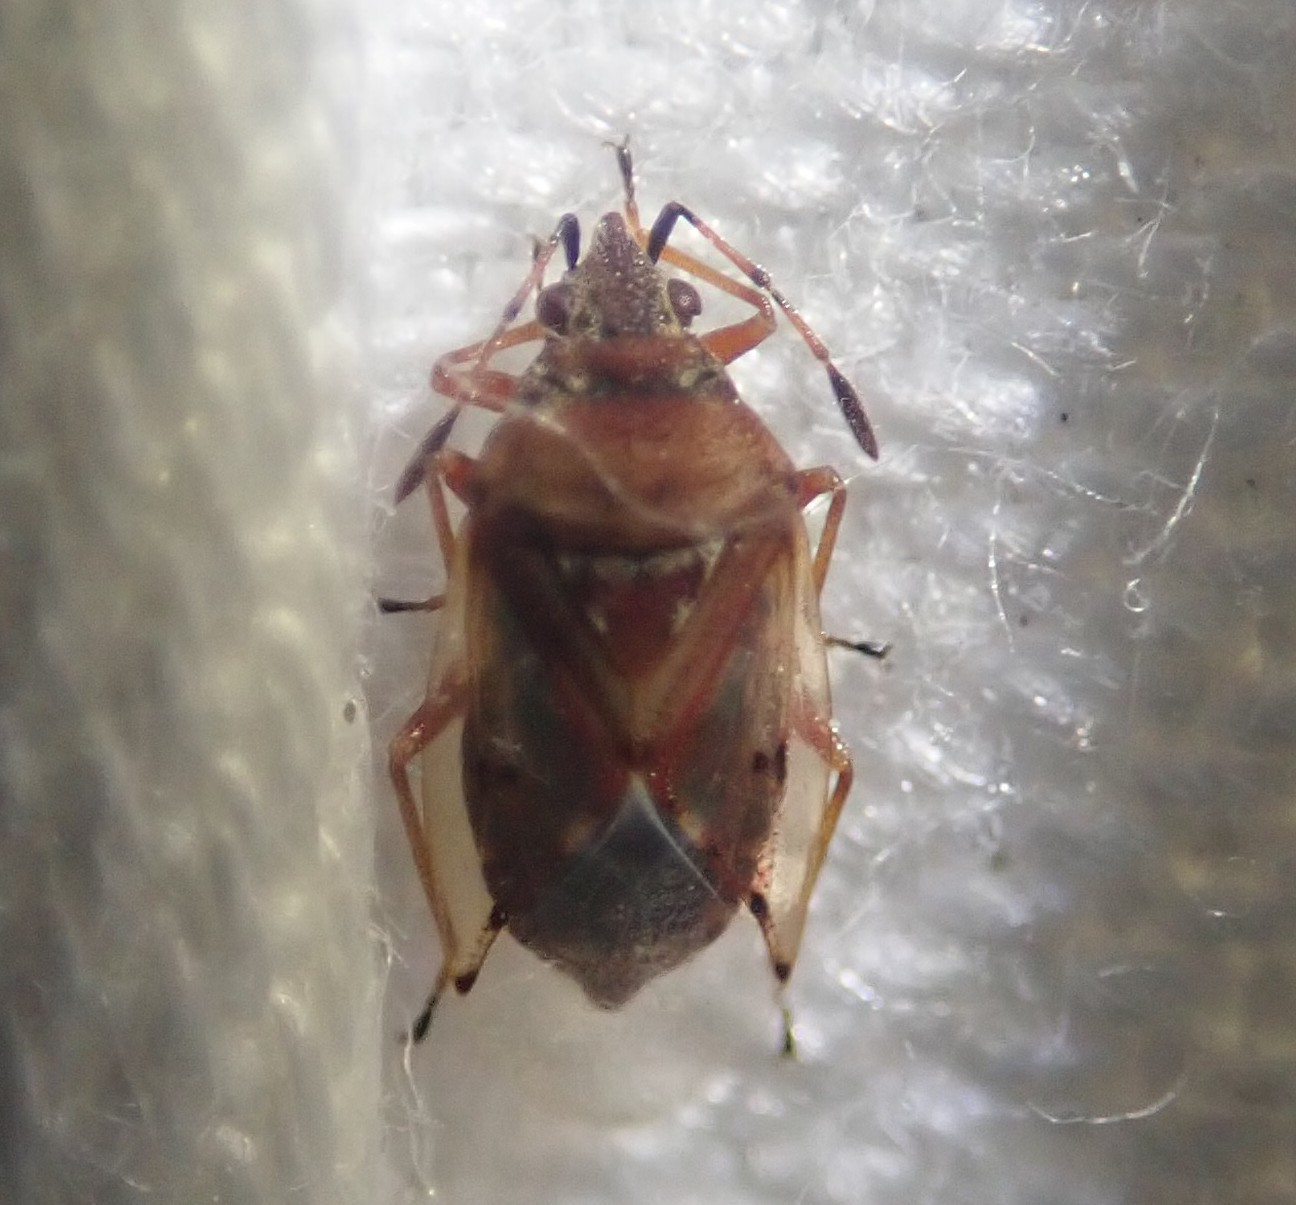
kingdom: Animalia
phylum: Arthropoda
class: Insecta
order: Hemiptera
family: Lygaeidae
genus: Kleidocerys
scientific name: Kleidocerys resedae
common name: Birch catkin bug
